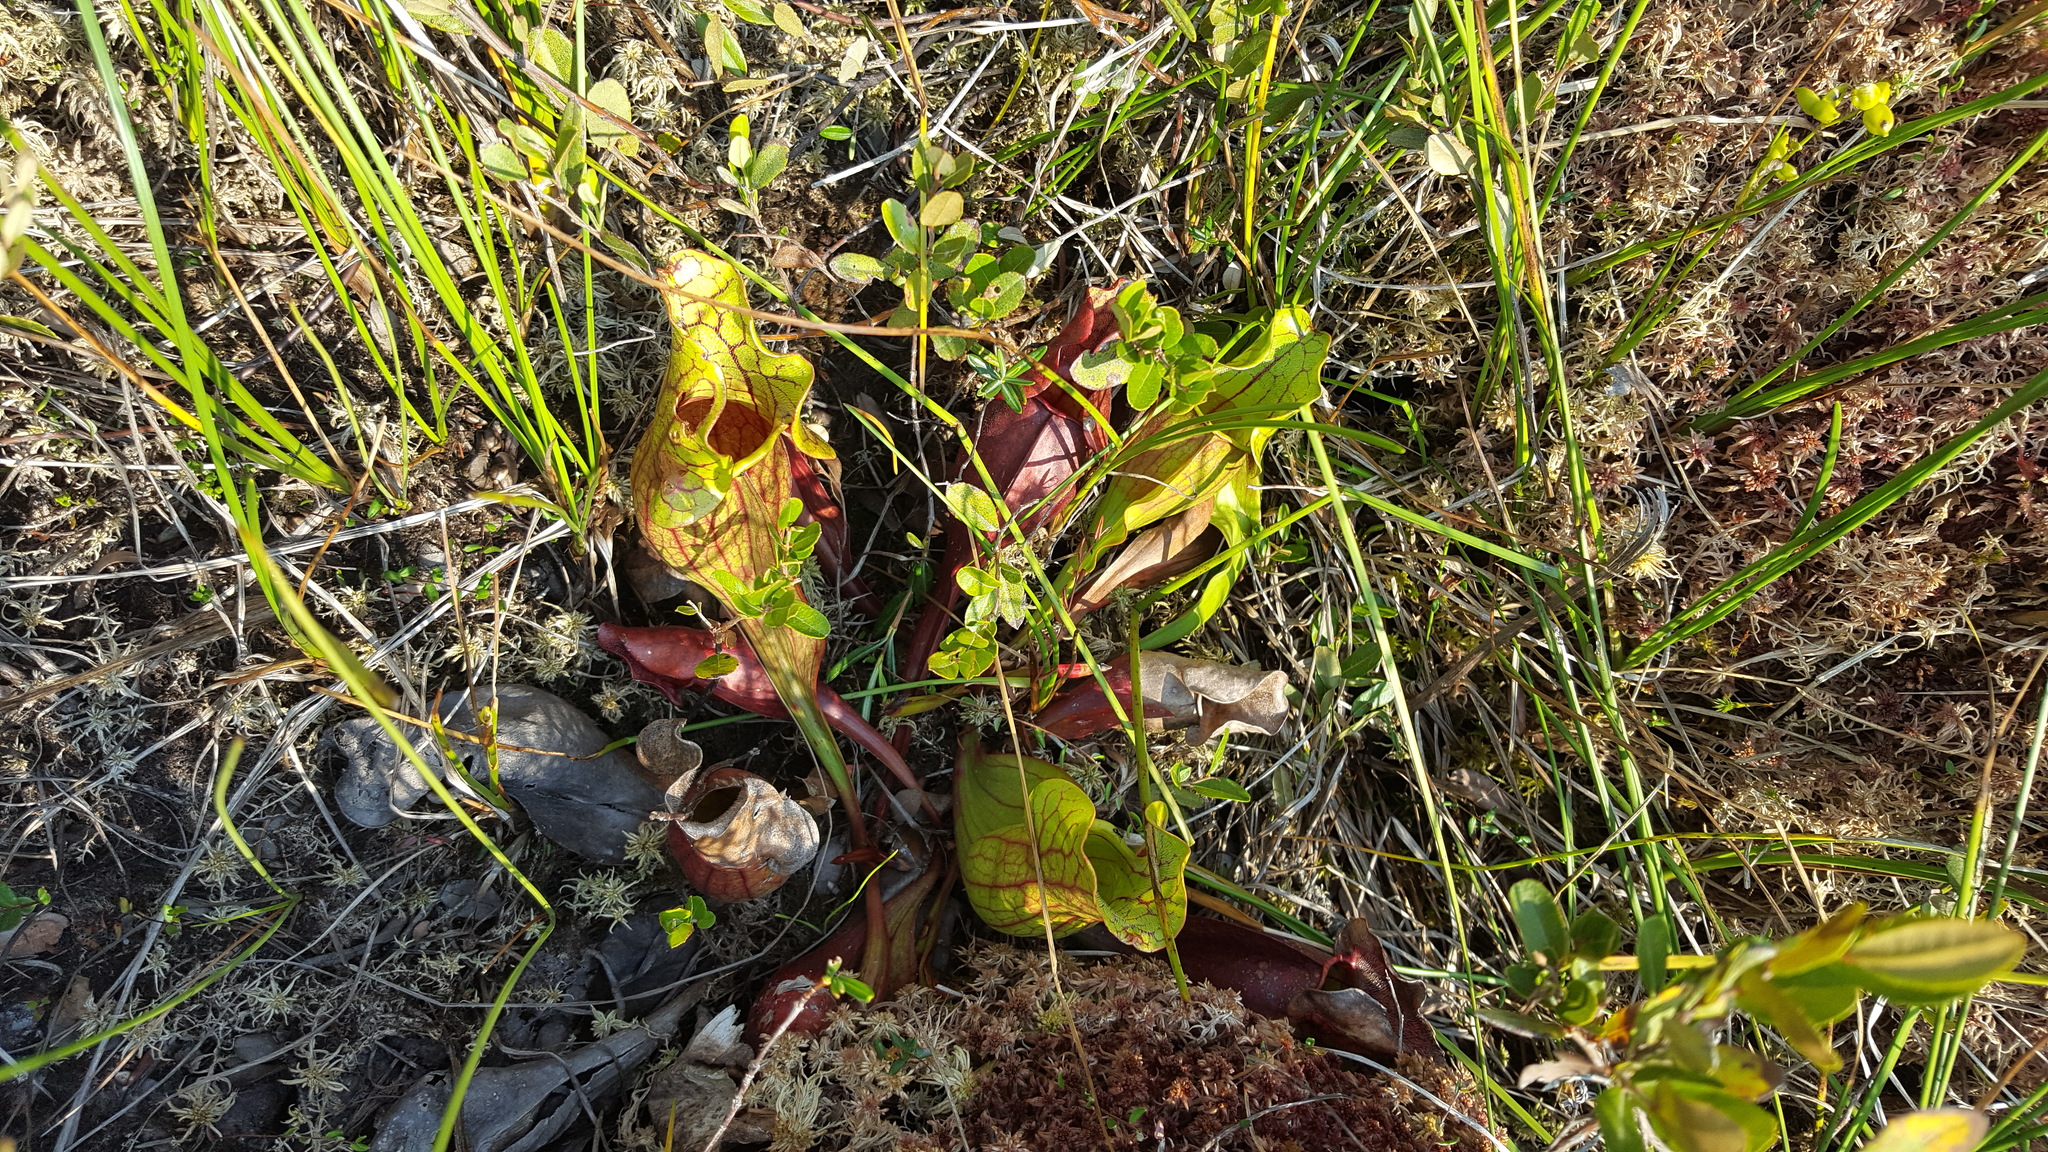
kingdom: Plantae
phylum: Tracheophyta
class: Magnoliopsida
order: Ericales
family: Sarraceniaceae
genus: Sarracenia
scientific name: Sarracenia purpurea
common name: Pitcherplant
